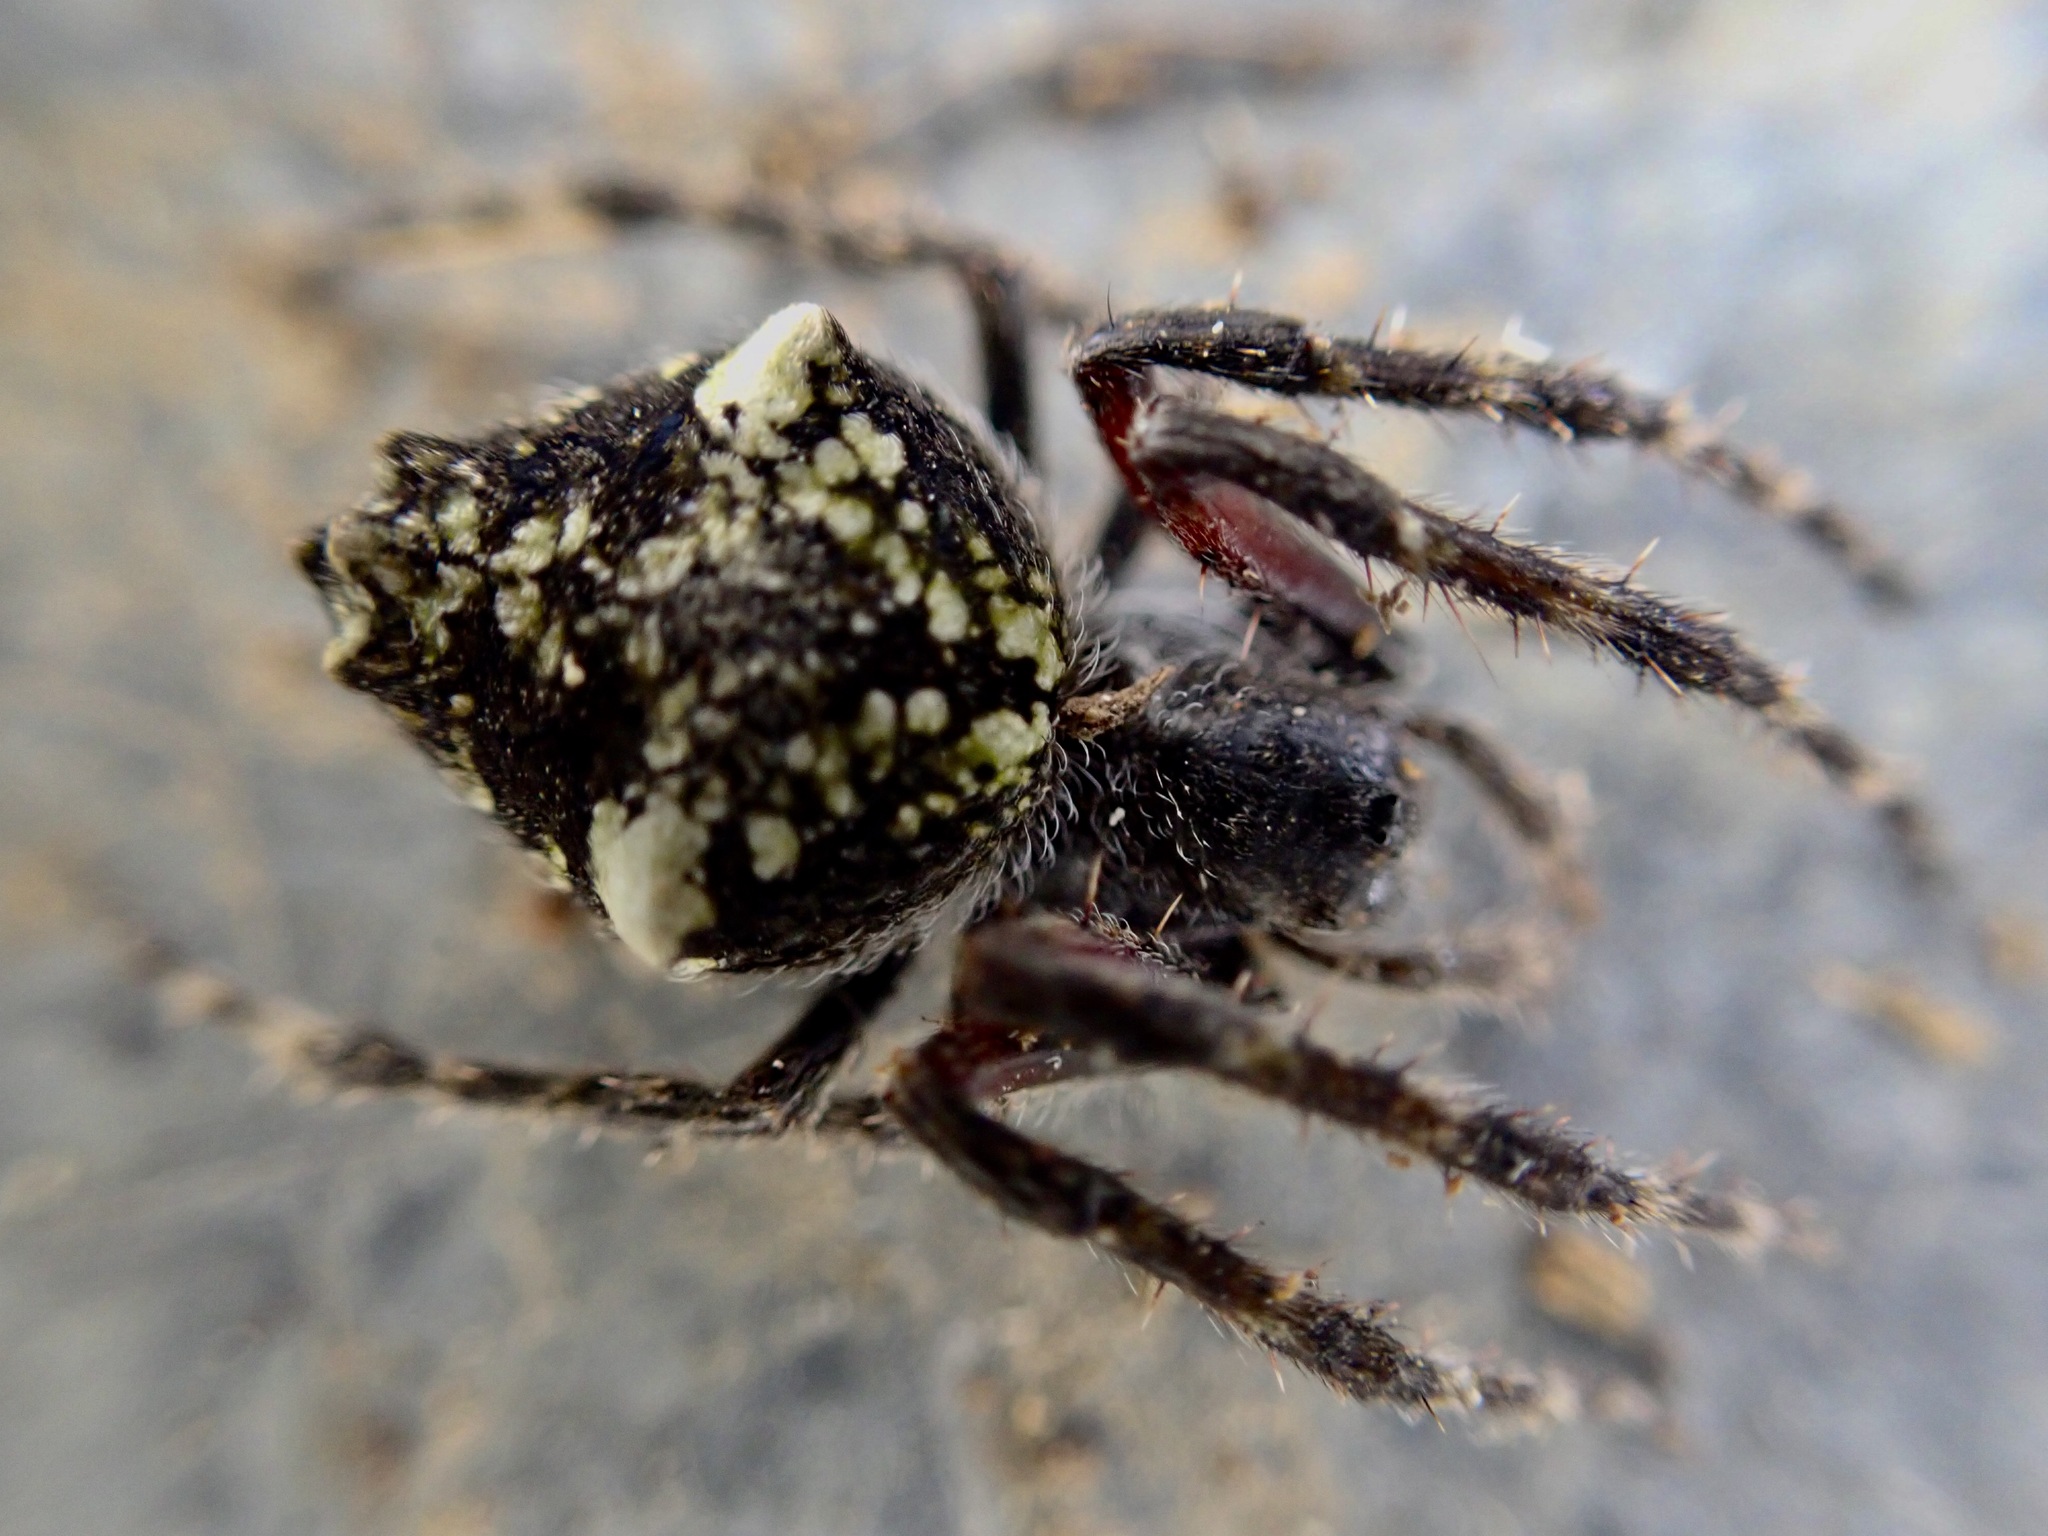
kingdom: Animalia
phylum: Arthropoda
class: Arachnida
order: Araneae
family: Araneidae
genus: Eriophora
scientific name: Eriophora pustulosa
